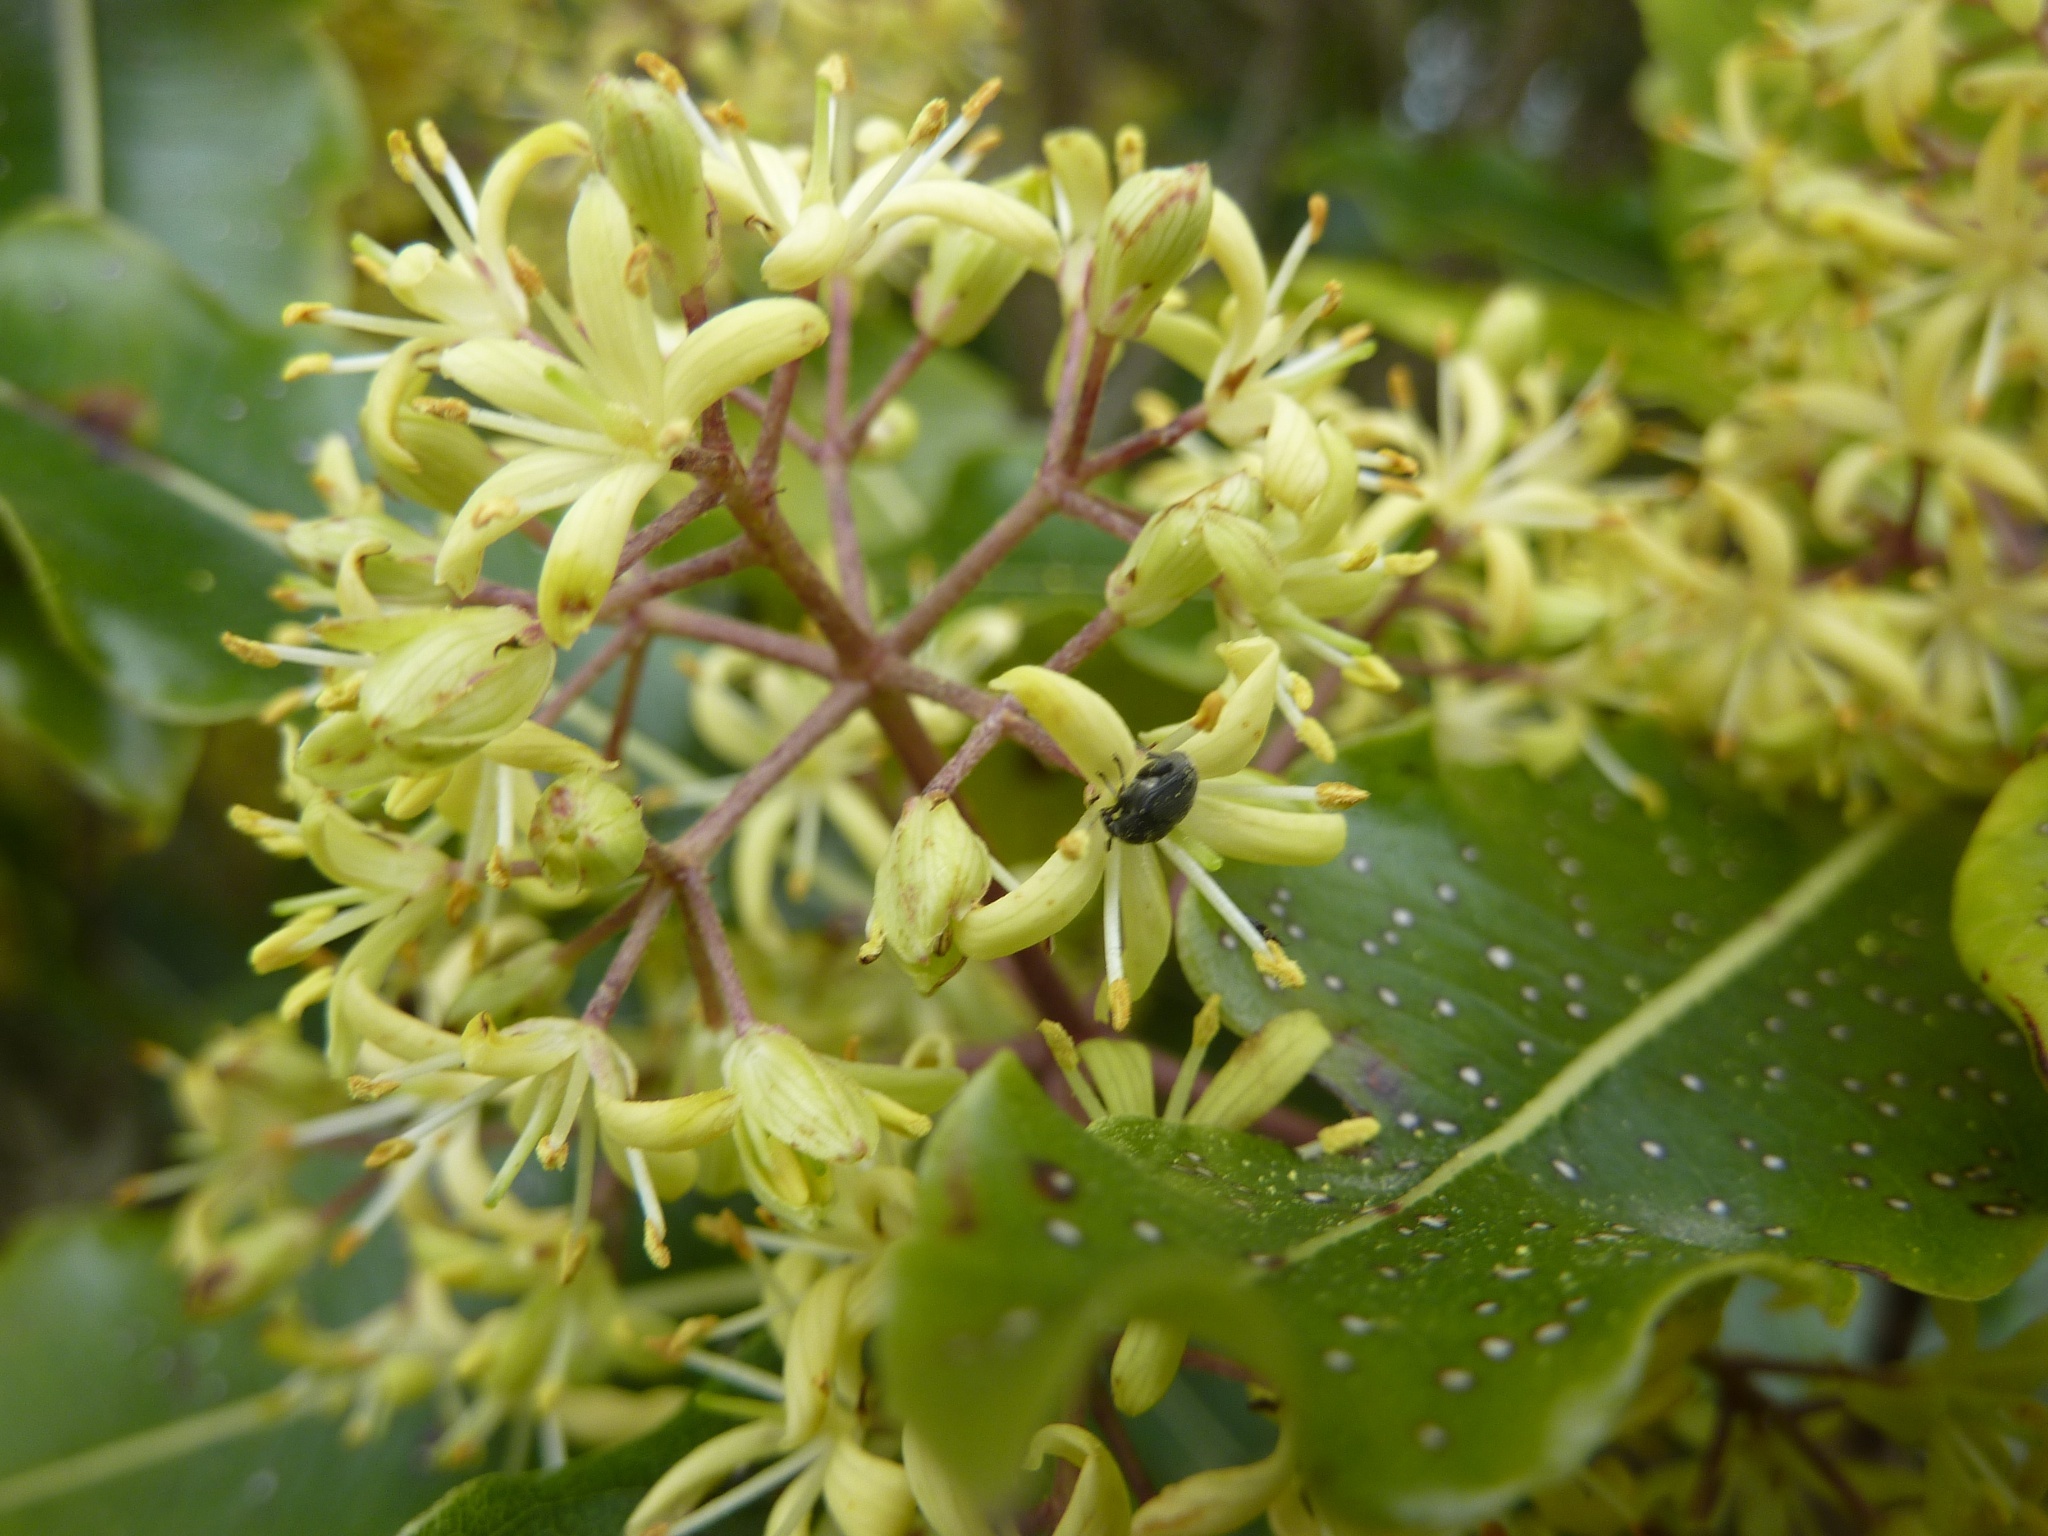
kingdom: Animalia
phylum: Arthropoda
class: Insecta
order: Coleoptera
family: Chrysomelidae
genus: Bruchidius
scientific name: Bruchidius villosus
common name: Scotch broom bruchid
